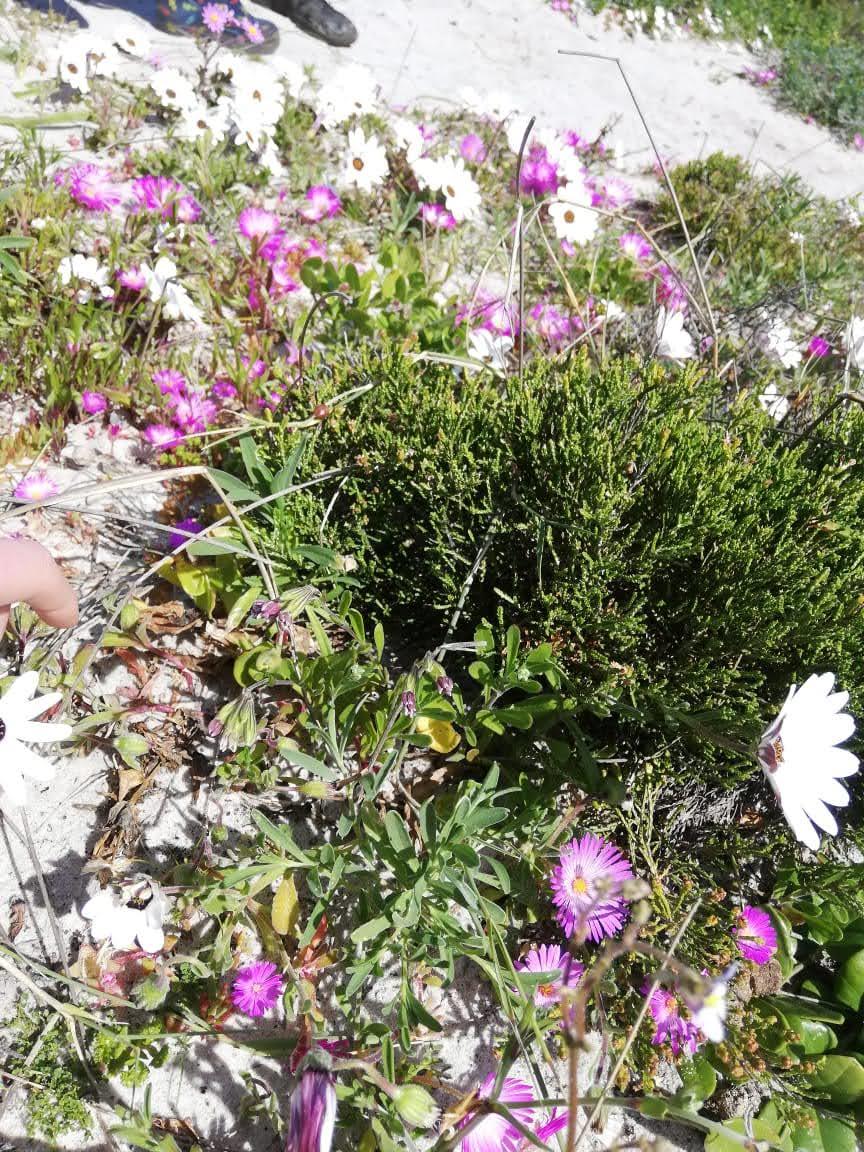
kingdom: Plantae
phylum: Tracheophyta
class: Magnoliopsida
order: Caryophyllales
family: Caryophyllaceae
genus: Silene
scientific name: Silene aethiopica
